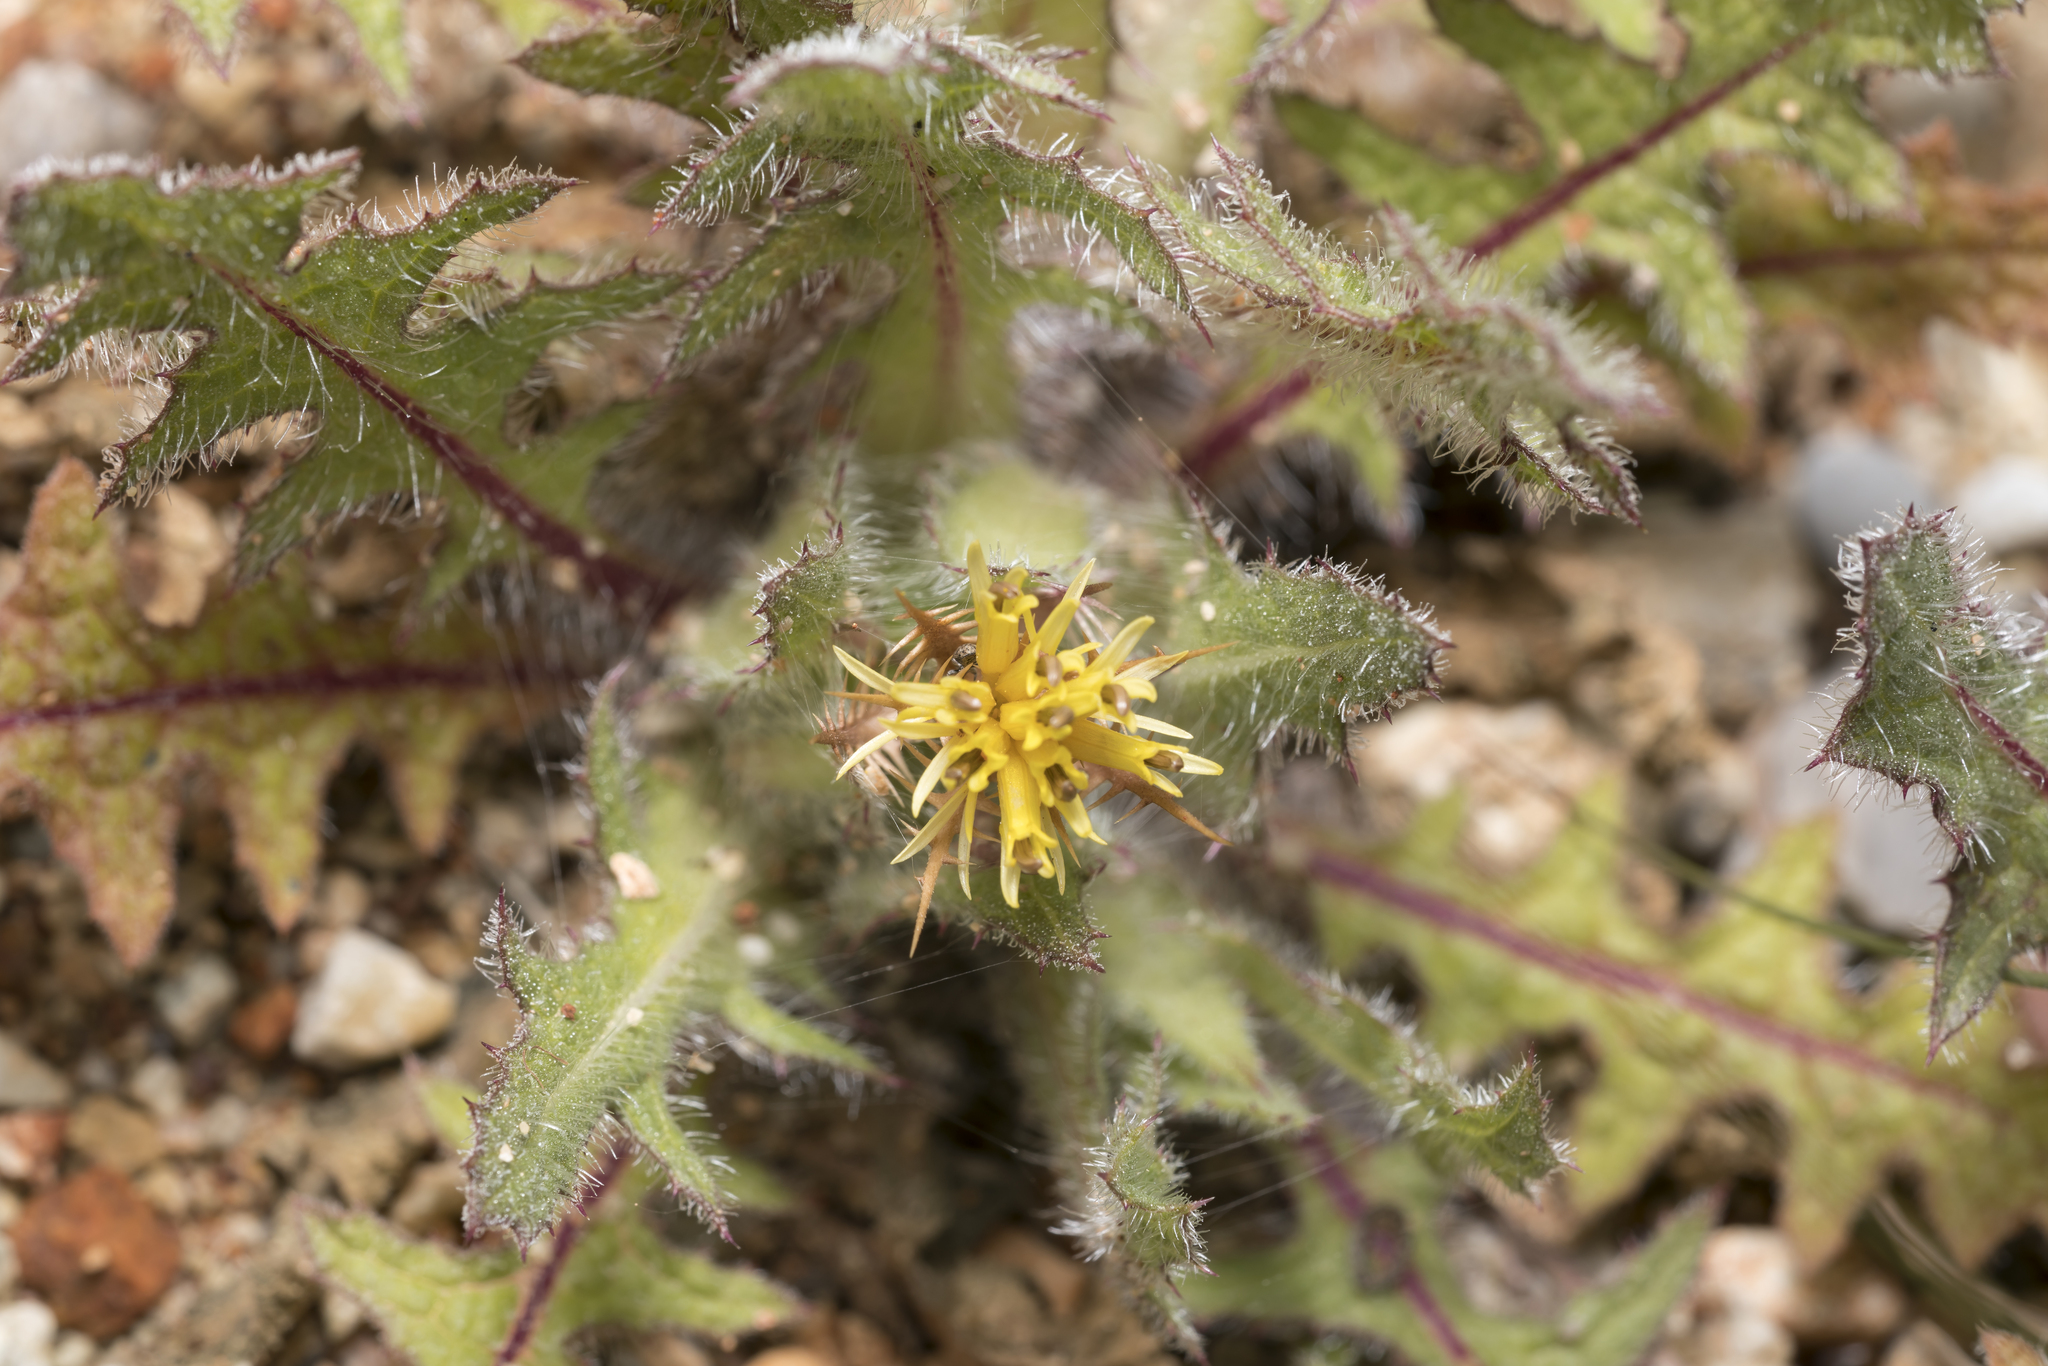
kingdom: Plantae
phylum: Tracheophyta
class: Magnoliopsida
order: Asterales
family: Asteraceae
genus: Centaurea
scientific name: Centaurea benedicta
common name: Blessed thistle
